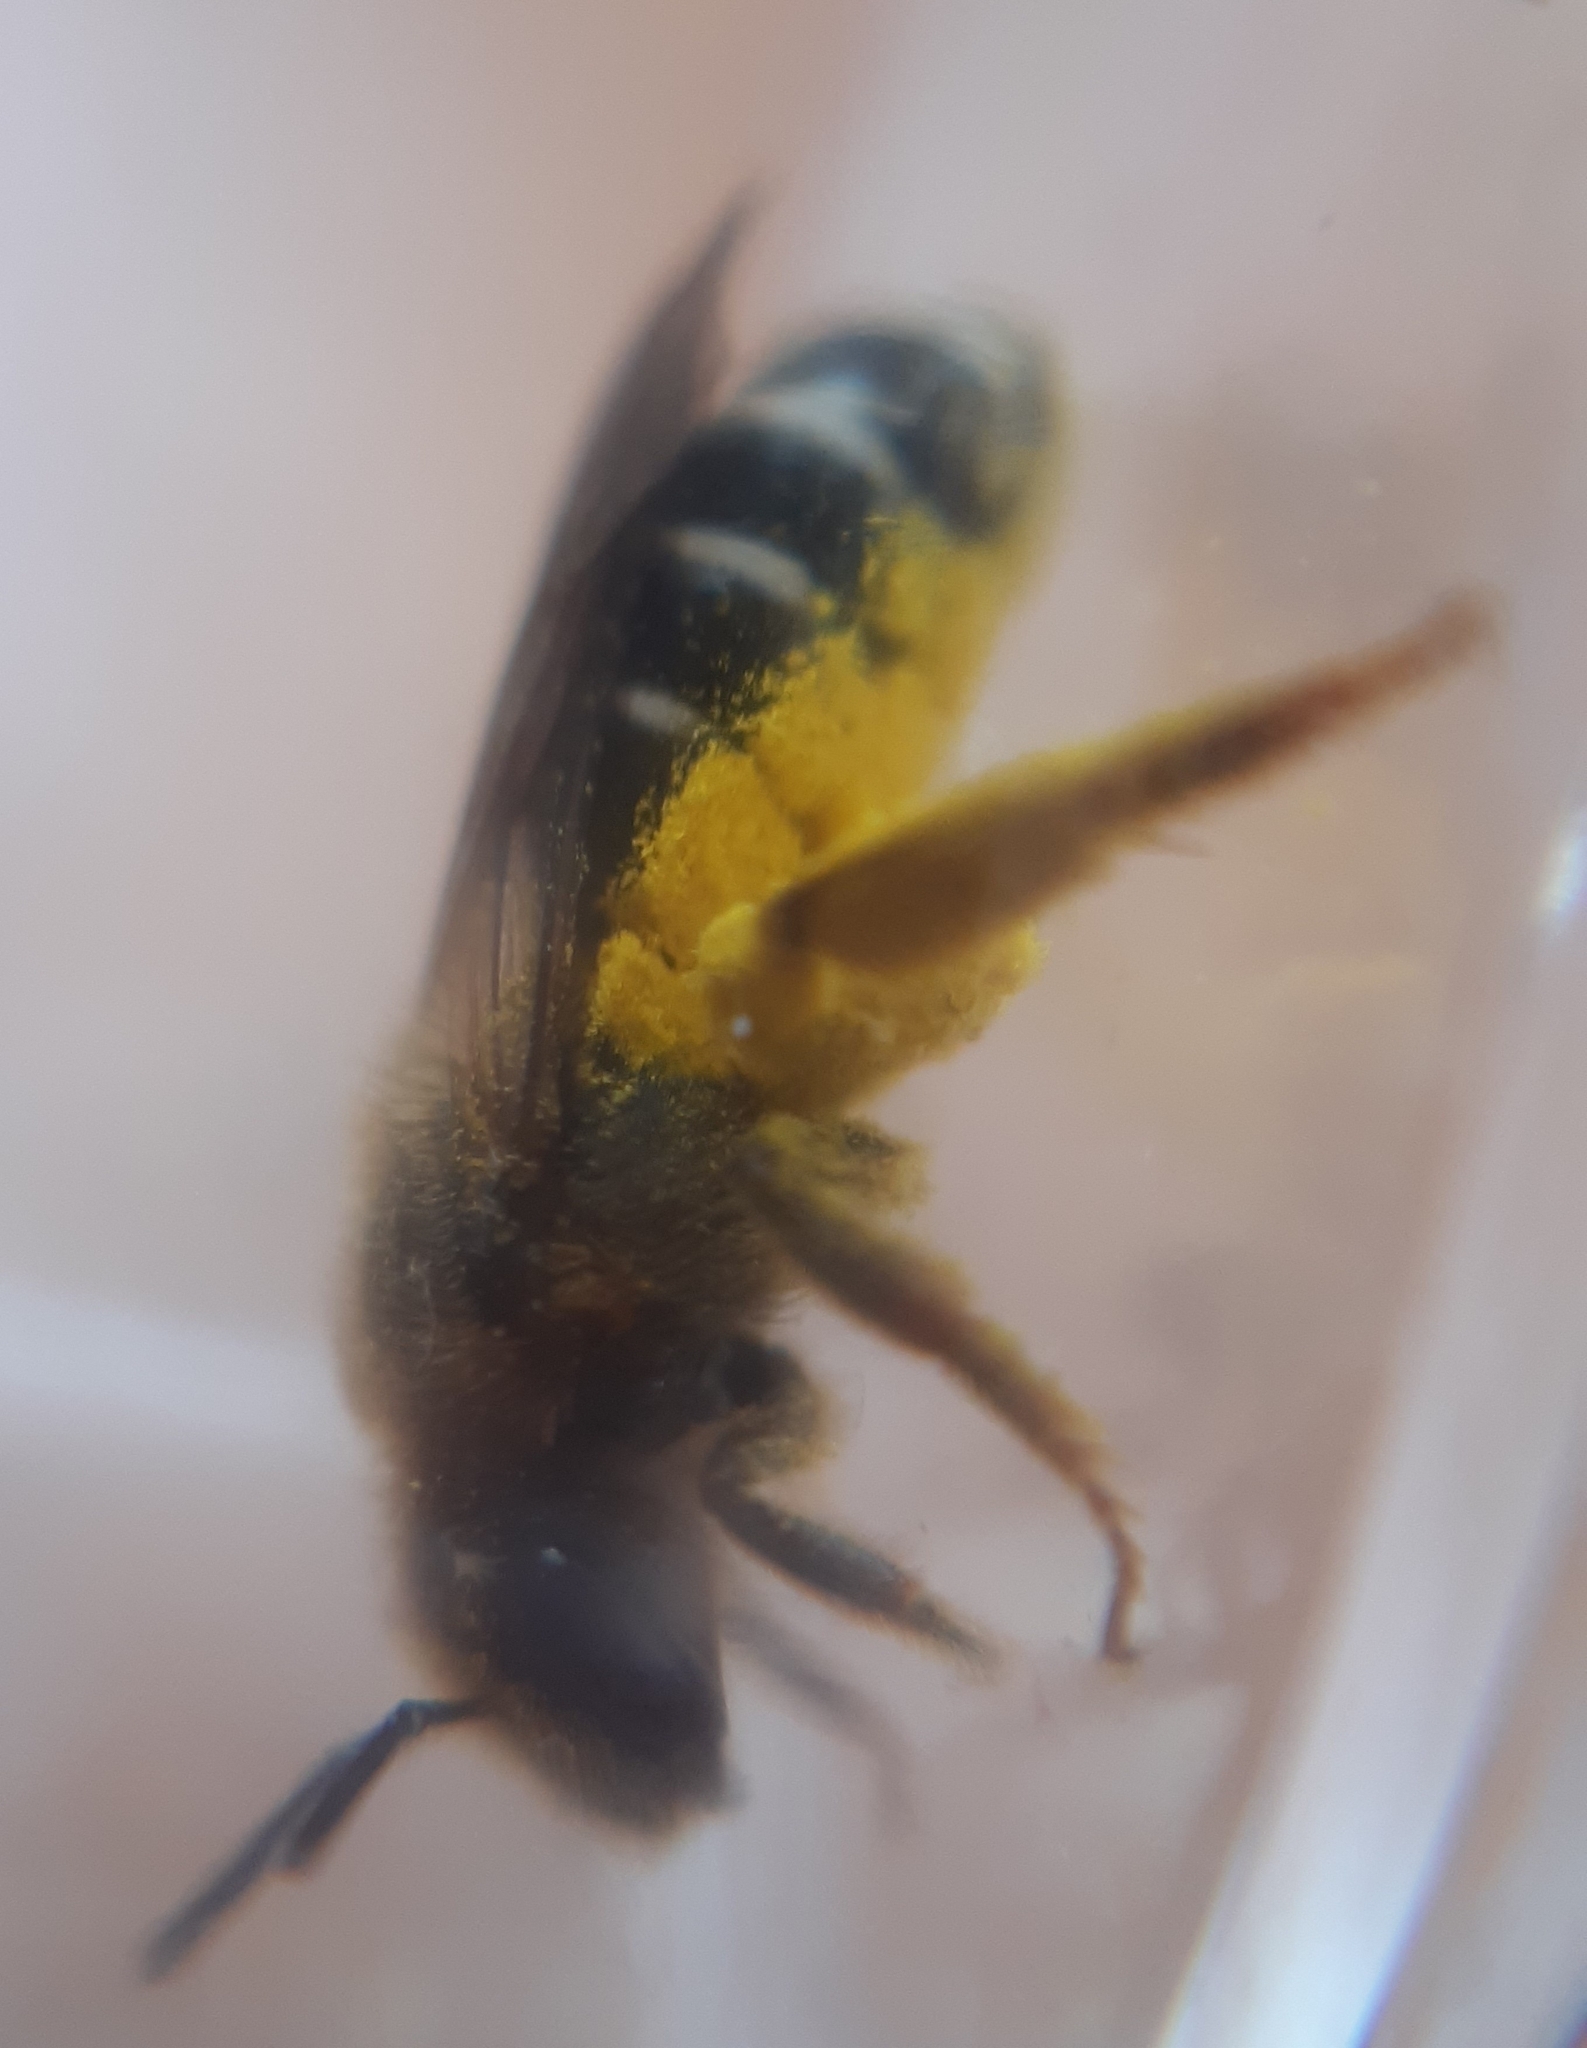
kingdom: Animalia
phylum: Arthropoda
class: Insecta
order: Hymenoptera
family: Halictidae
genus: Halictus
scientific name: Halictus rubicundus
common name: Orange-legged furrow bee
